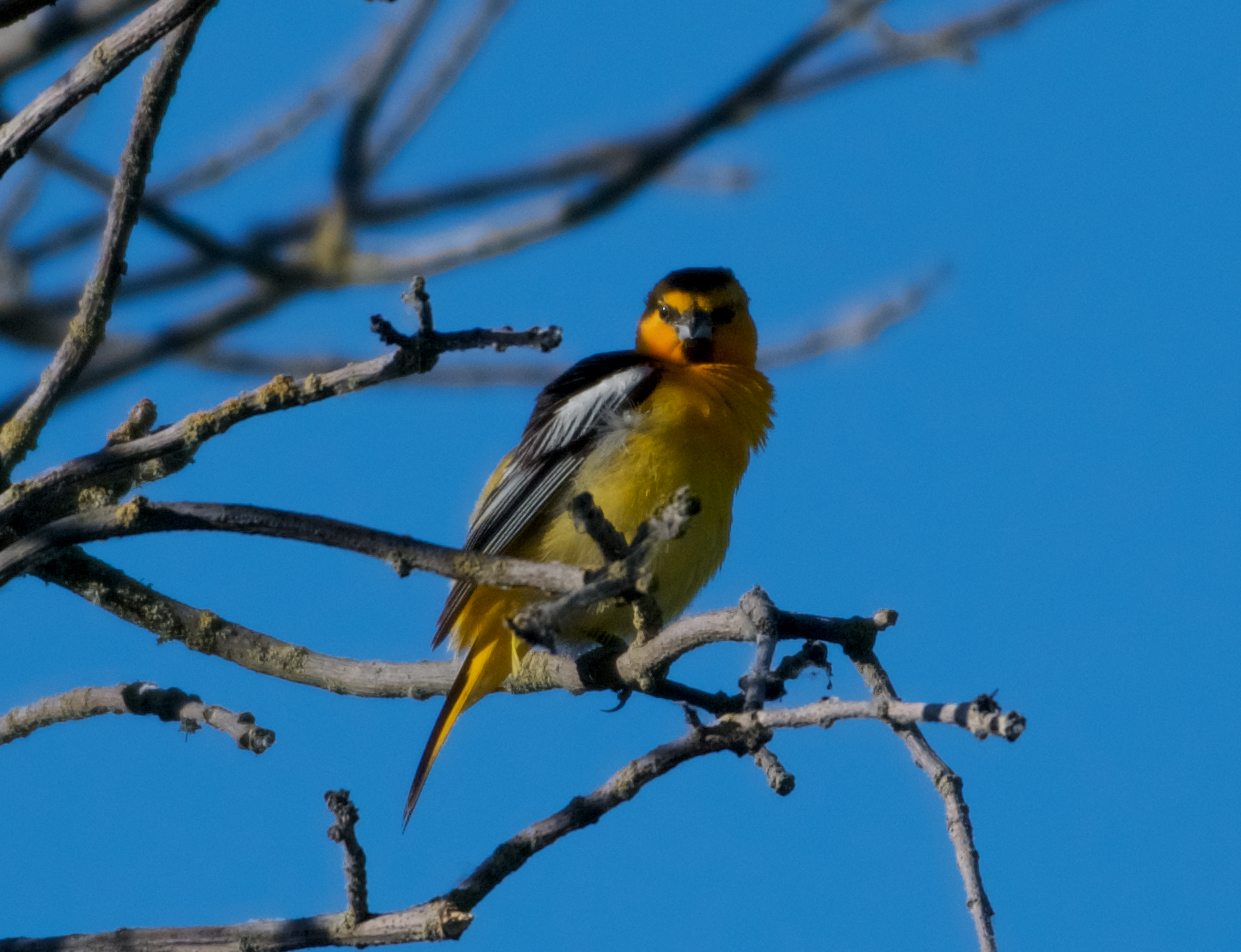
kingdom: Animalia
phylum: Chordata
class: Aves
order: Passeriformes
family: Icteridae
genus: Icterus
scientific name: Icterus bullockii
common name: Bullock's oriole
